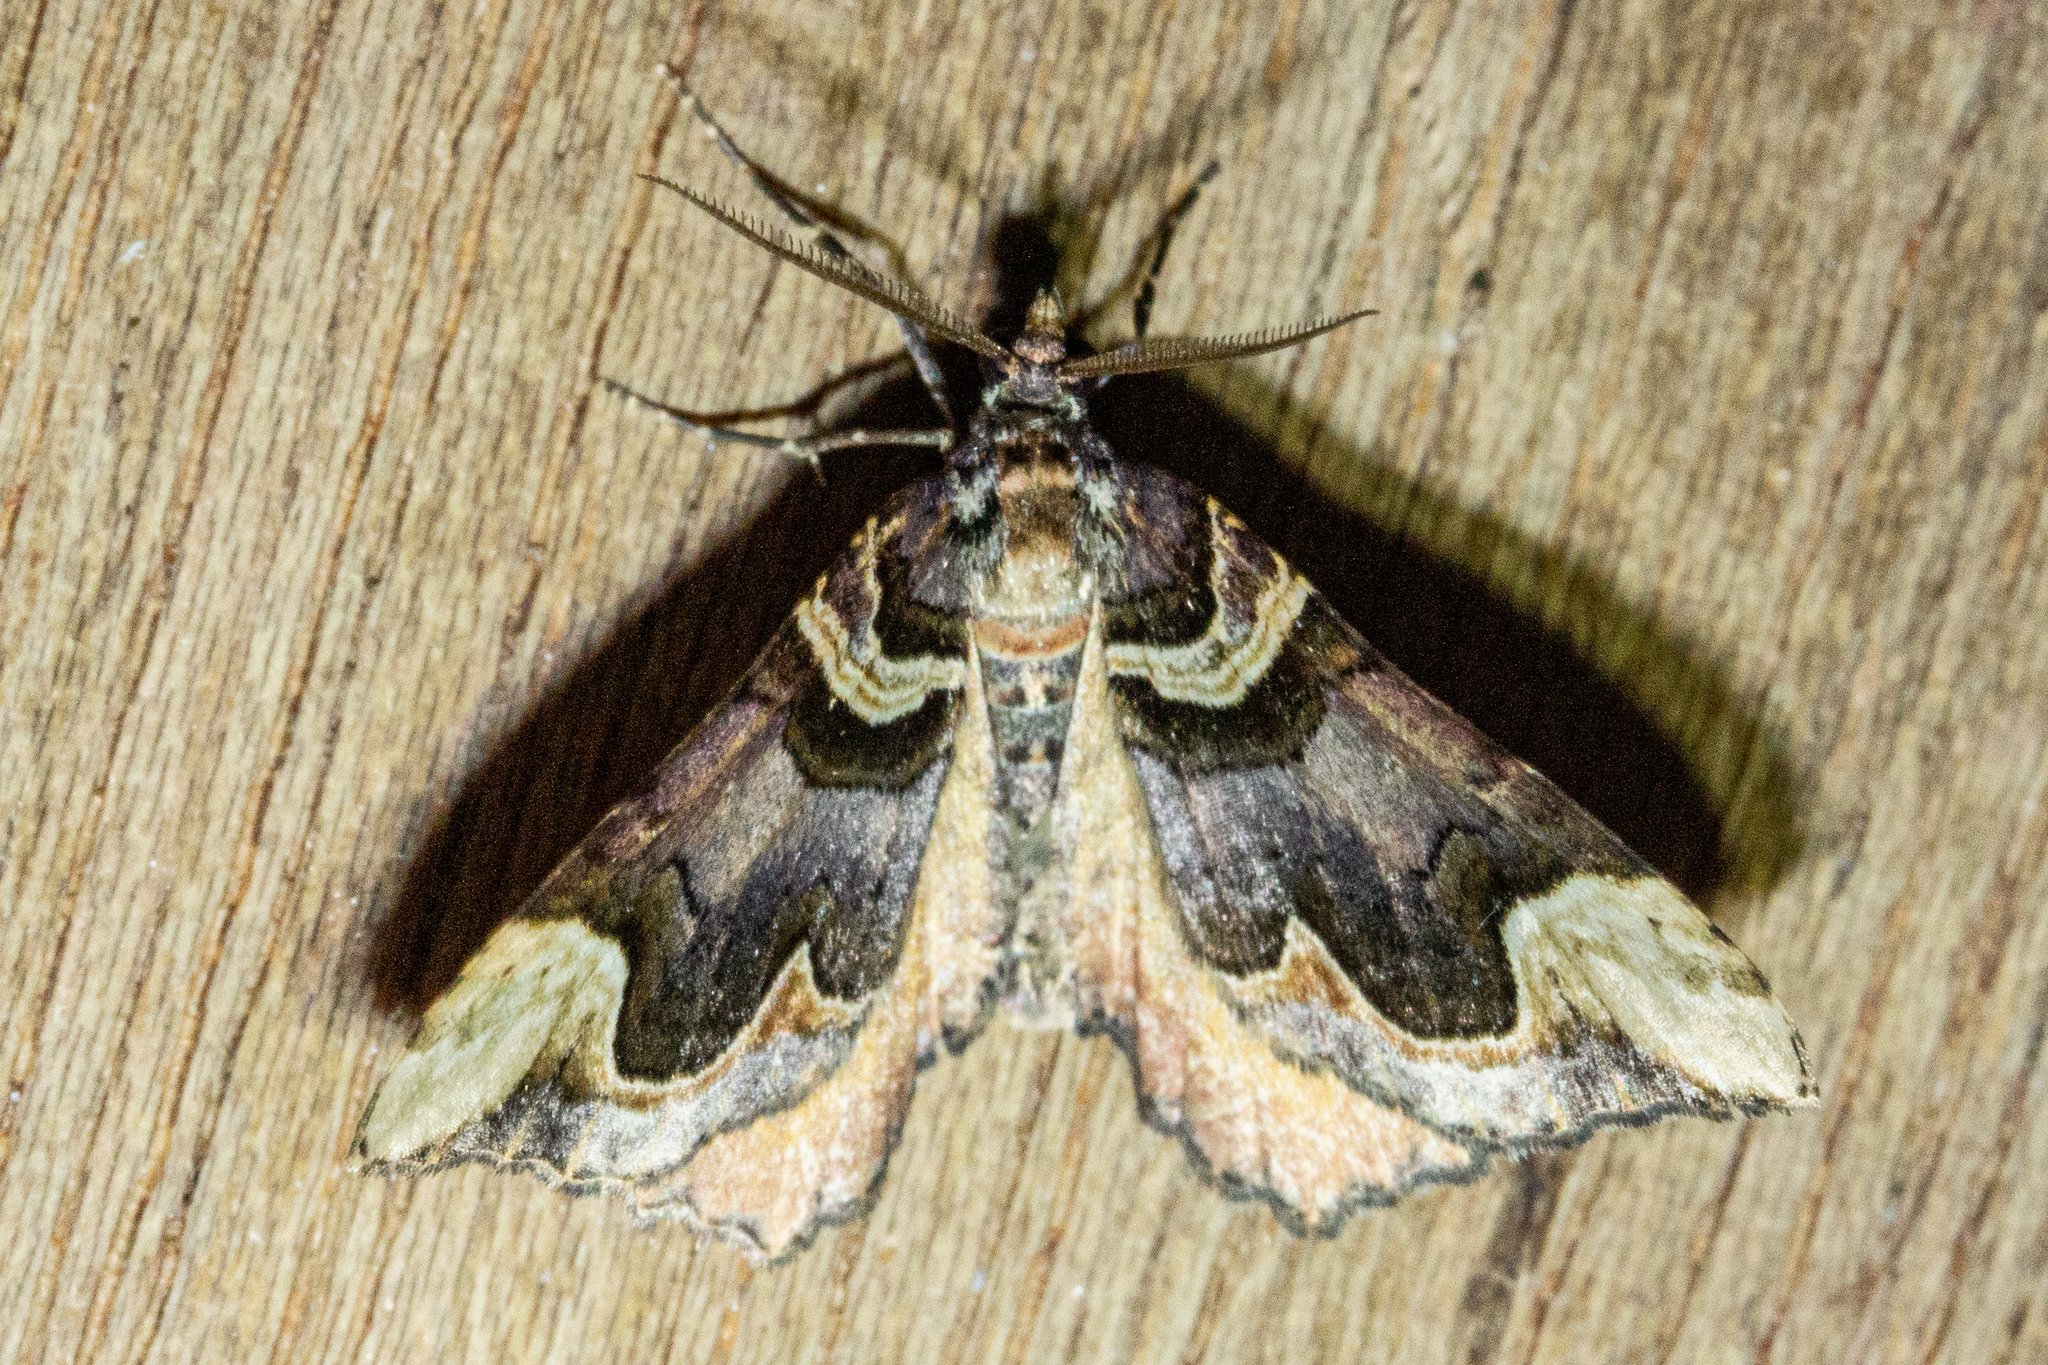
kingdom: Animalia
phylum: Arthropoda
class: Insecta
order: Lepidoptera
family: Geometridae
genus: Asaphodes
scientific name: Asaphodes chlamydota
